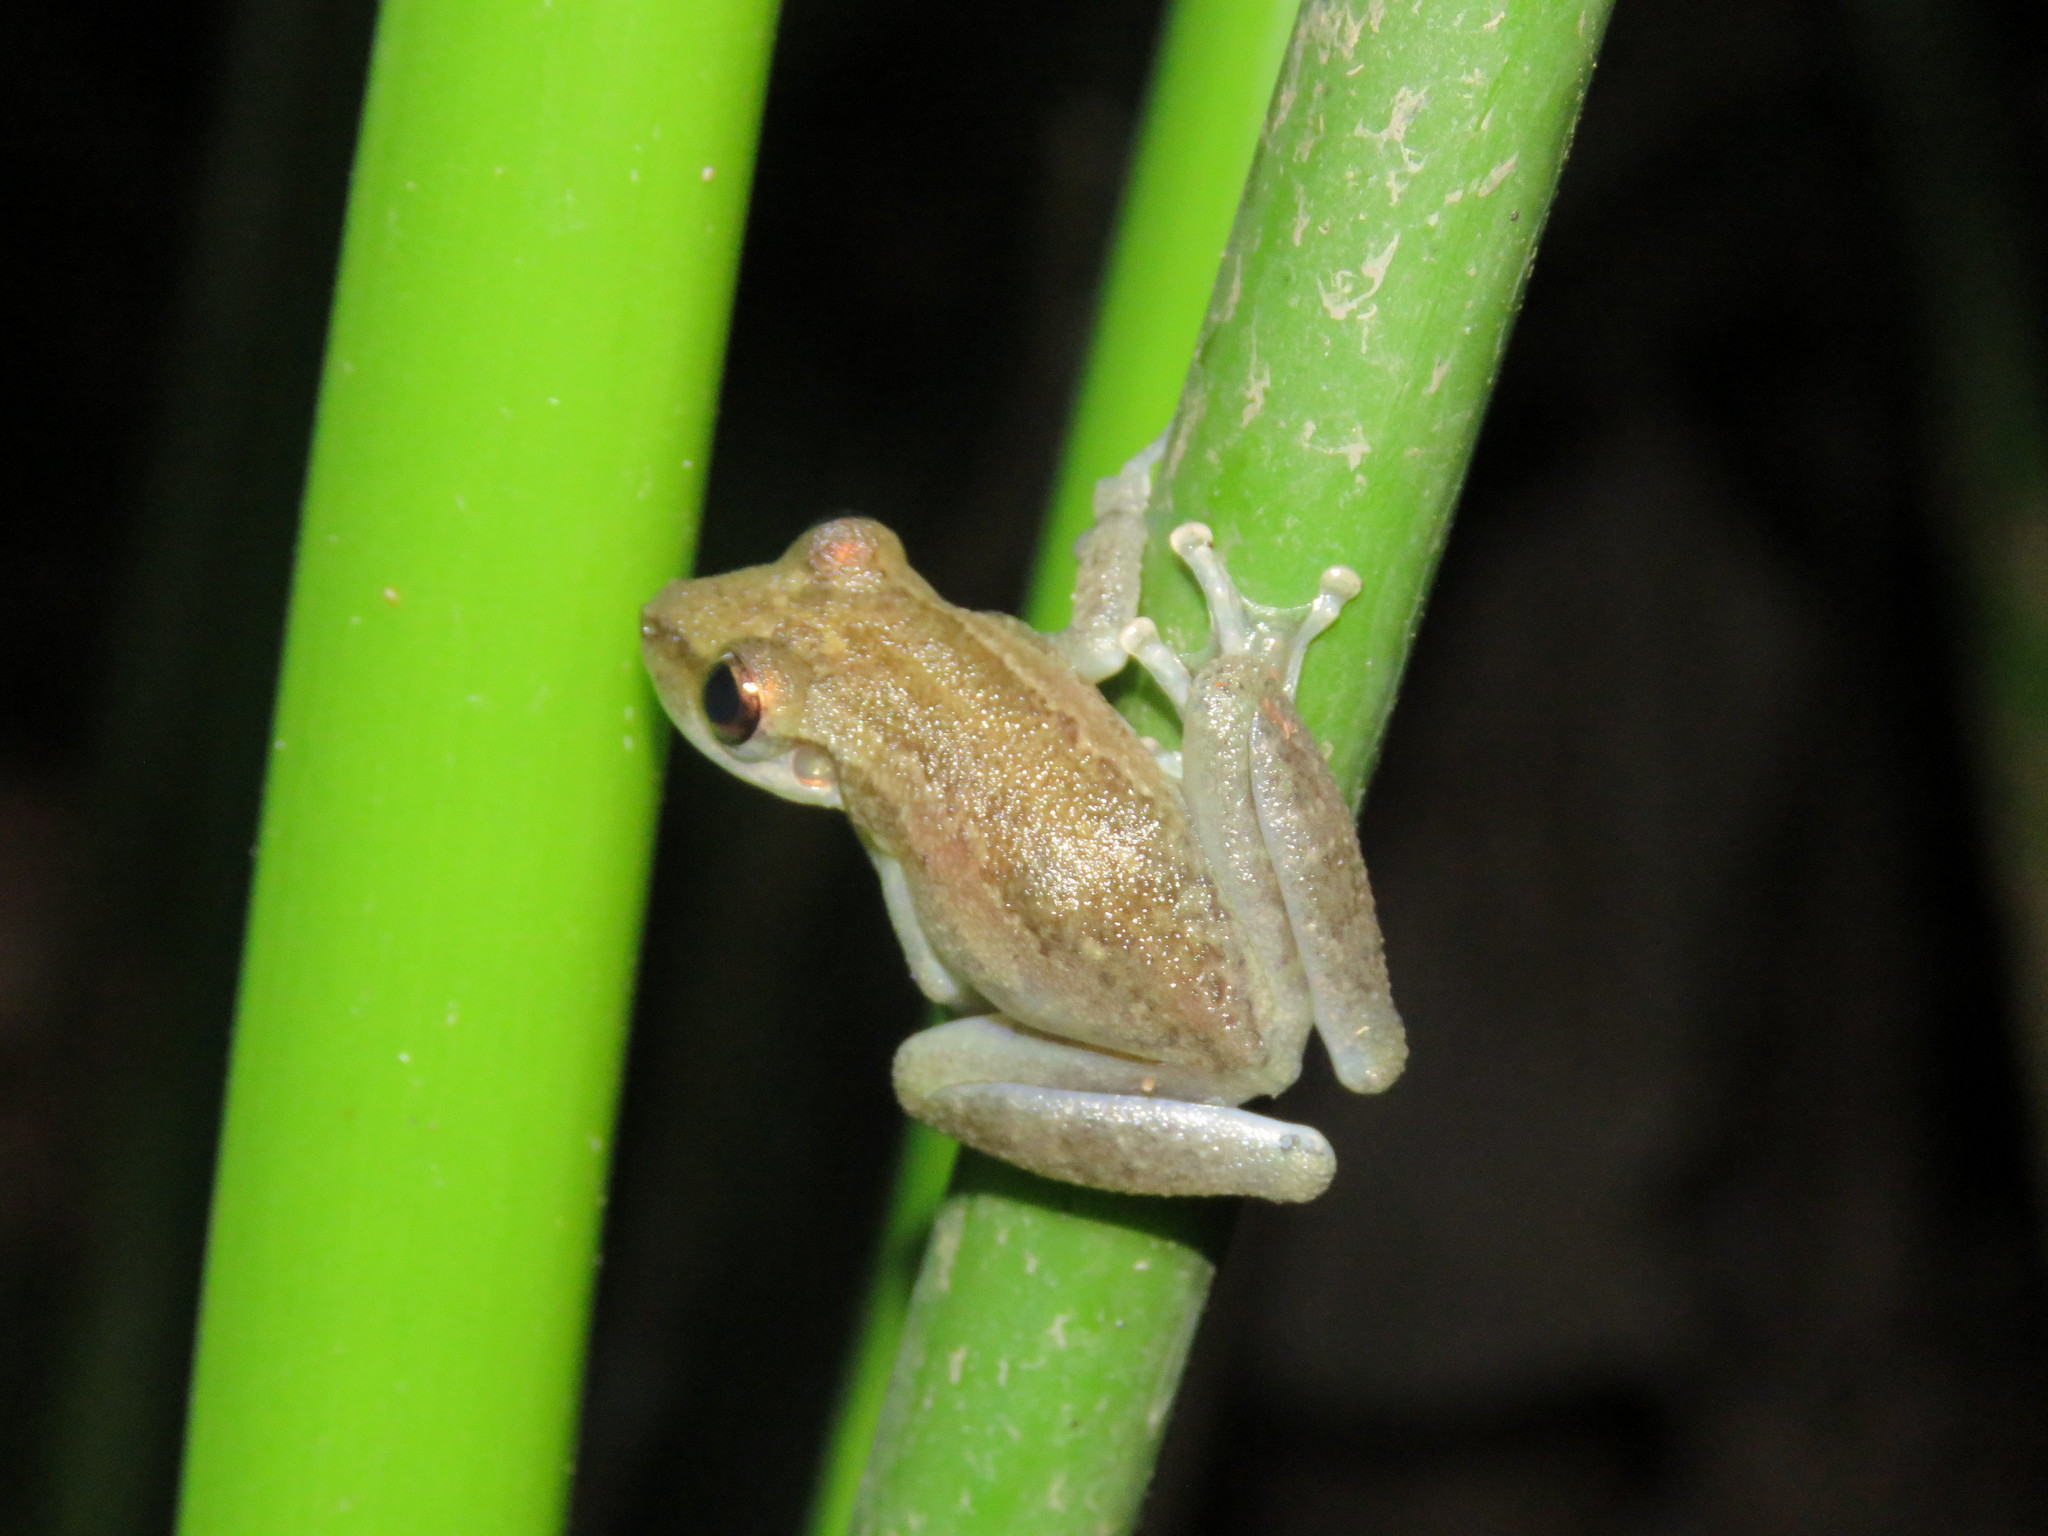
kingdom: Animalia
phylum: Chordata
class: Amphibia
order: Anura
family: Hylidae
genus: Scinax
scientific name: Scinax ruber
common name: Red snouted treefrog
